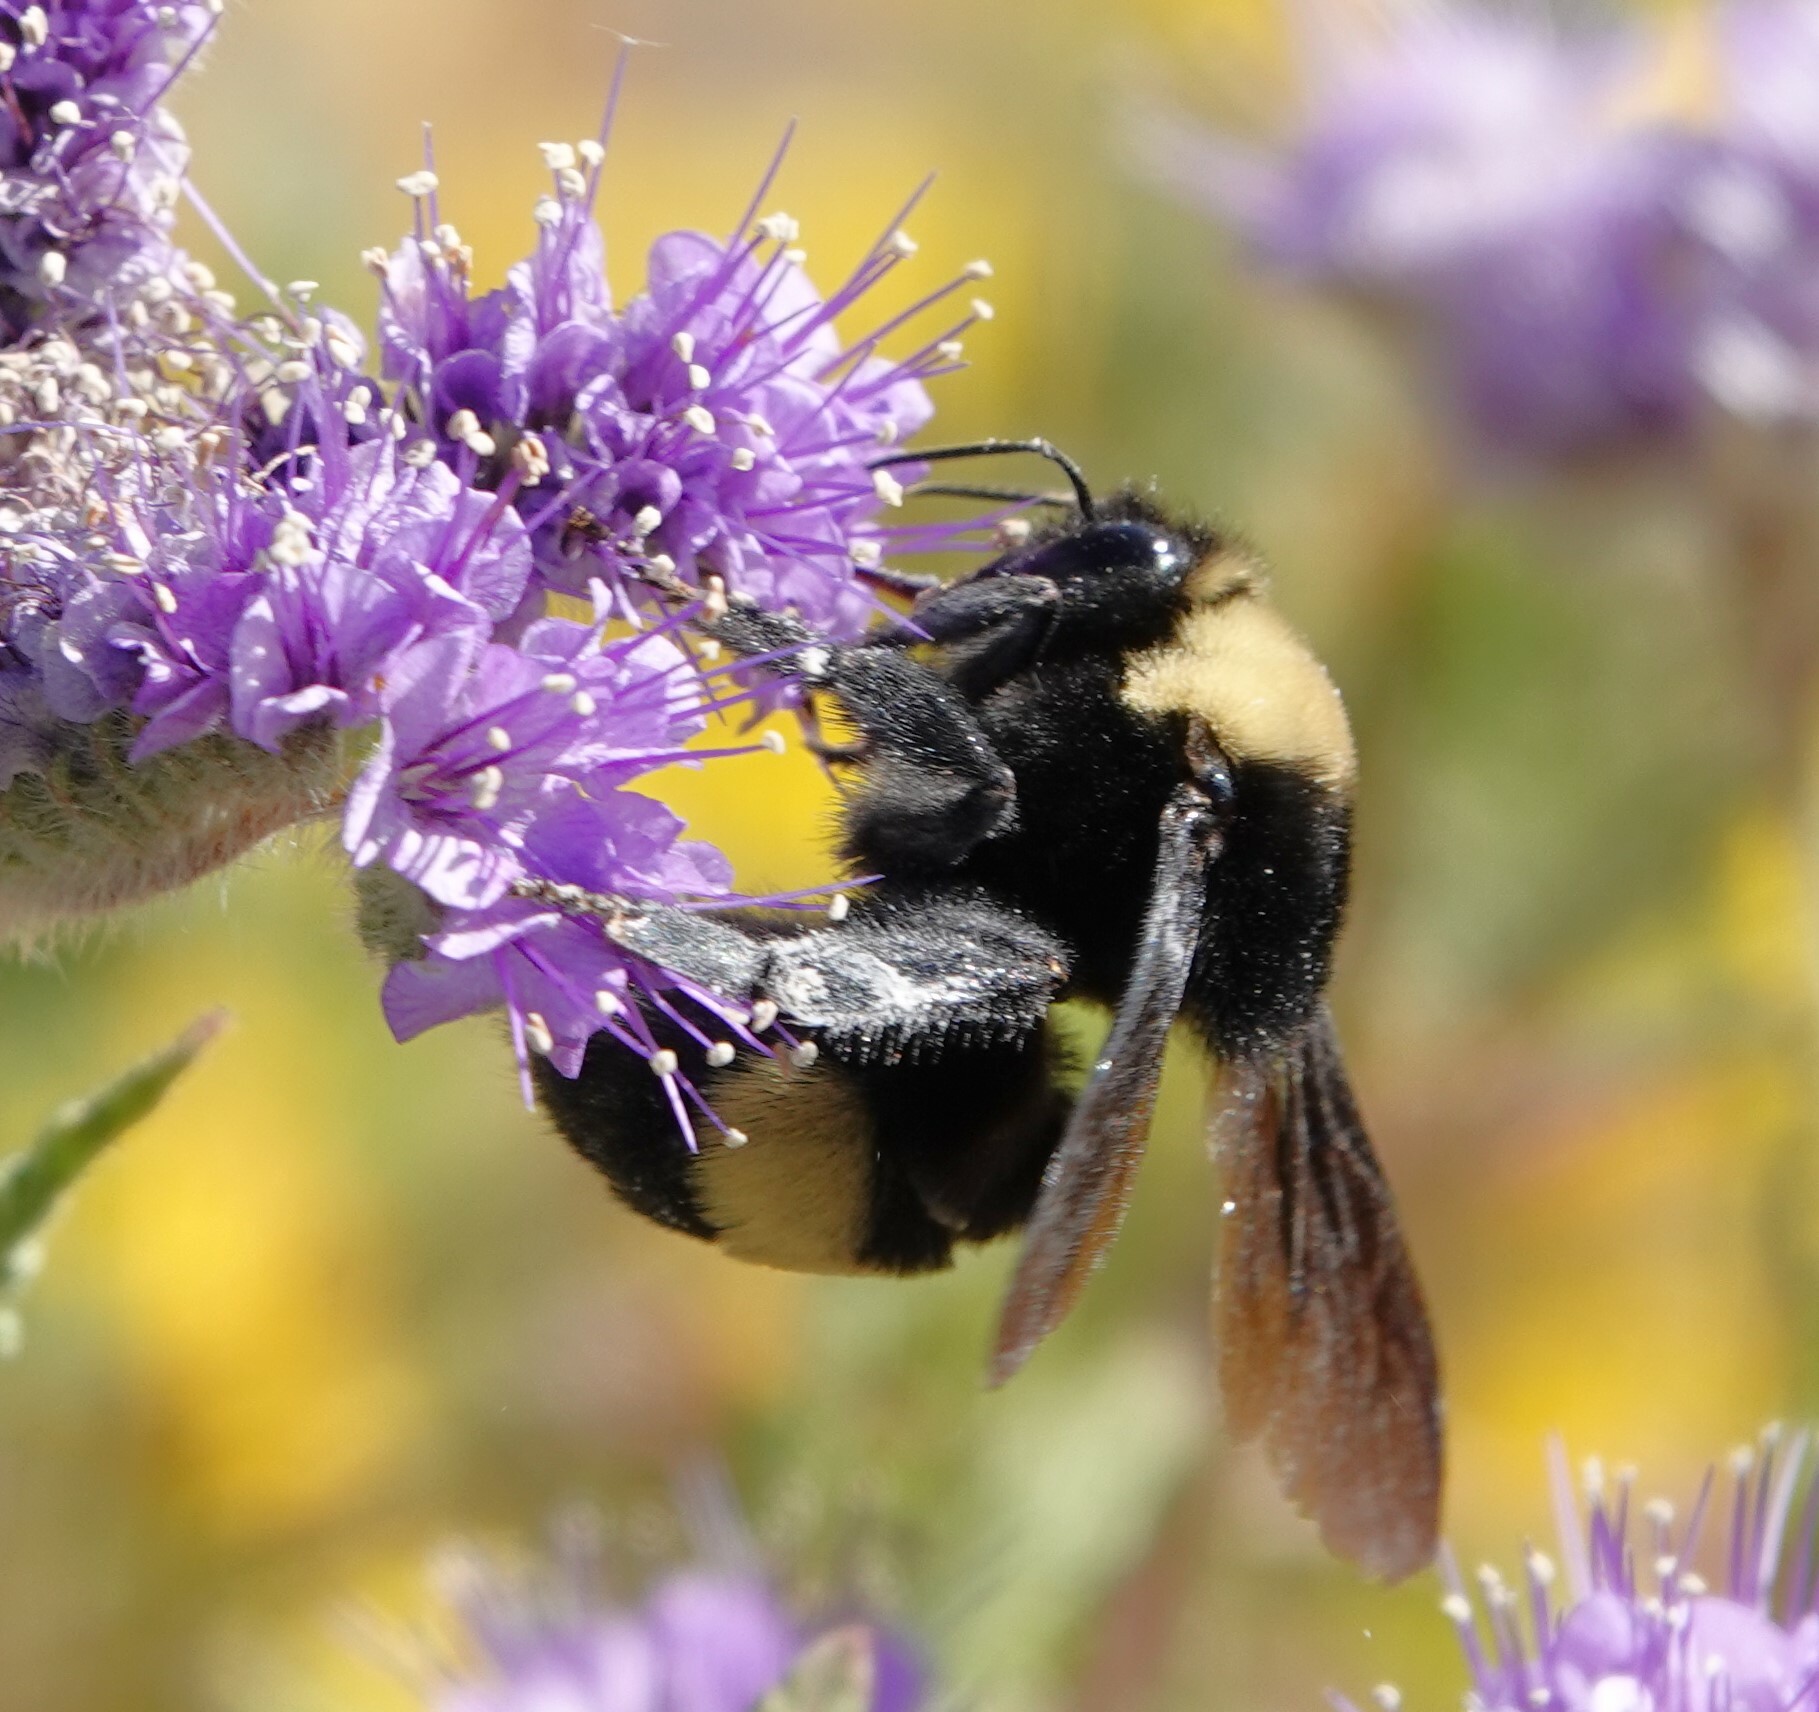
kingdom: Animalia
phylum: Arthropoda
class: Insecta
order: Hymenoptera
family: Apidae
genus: Bombus
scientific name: Bombus crotchii
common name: Crotch bumble bee
